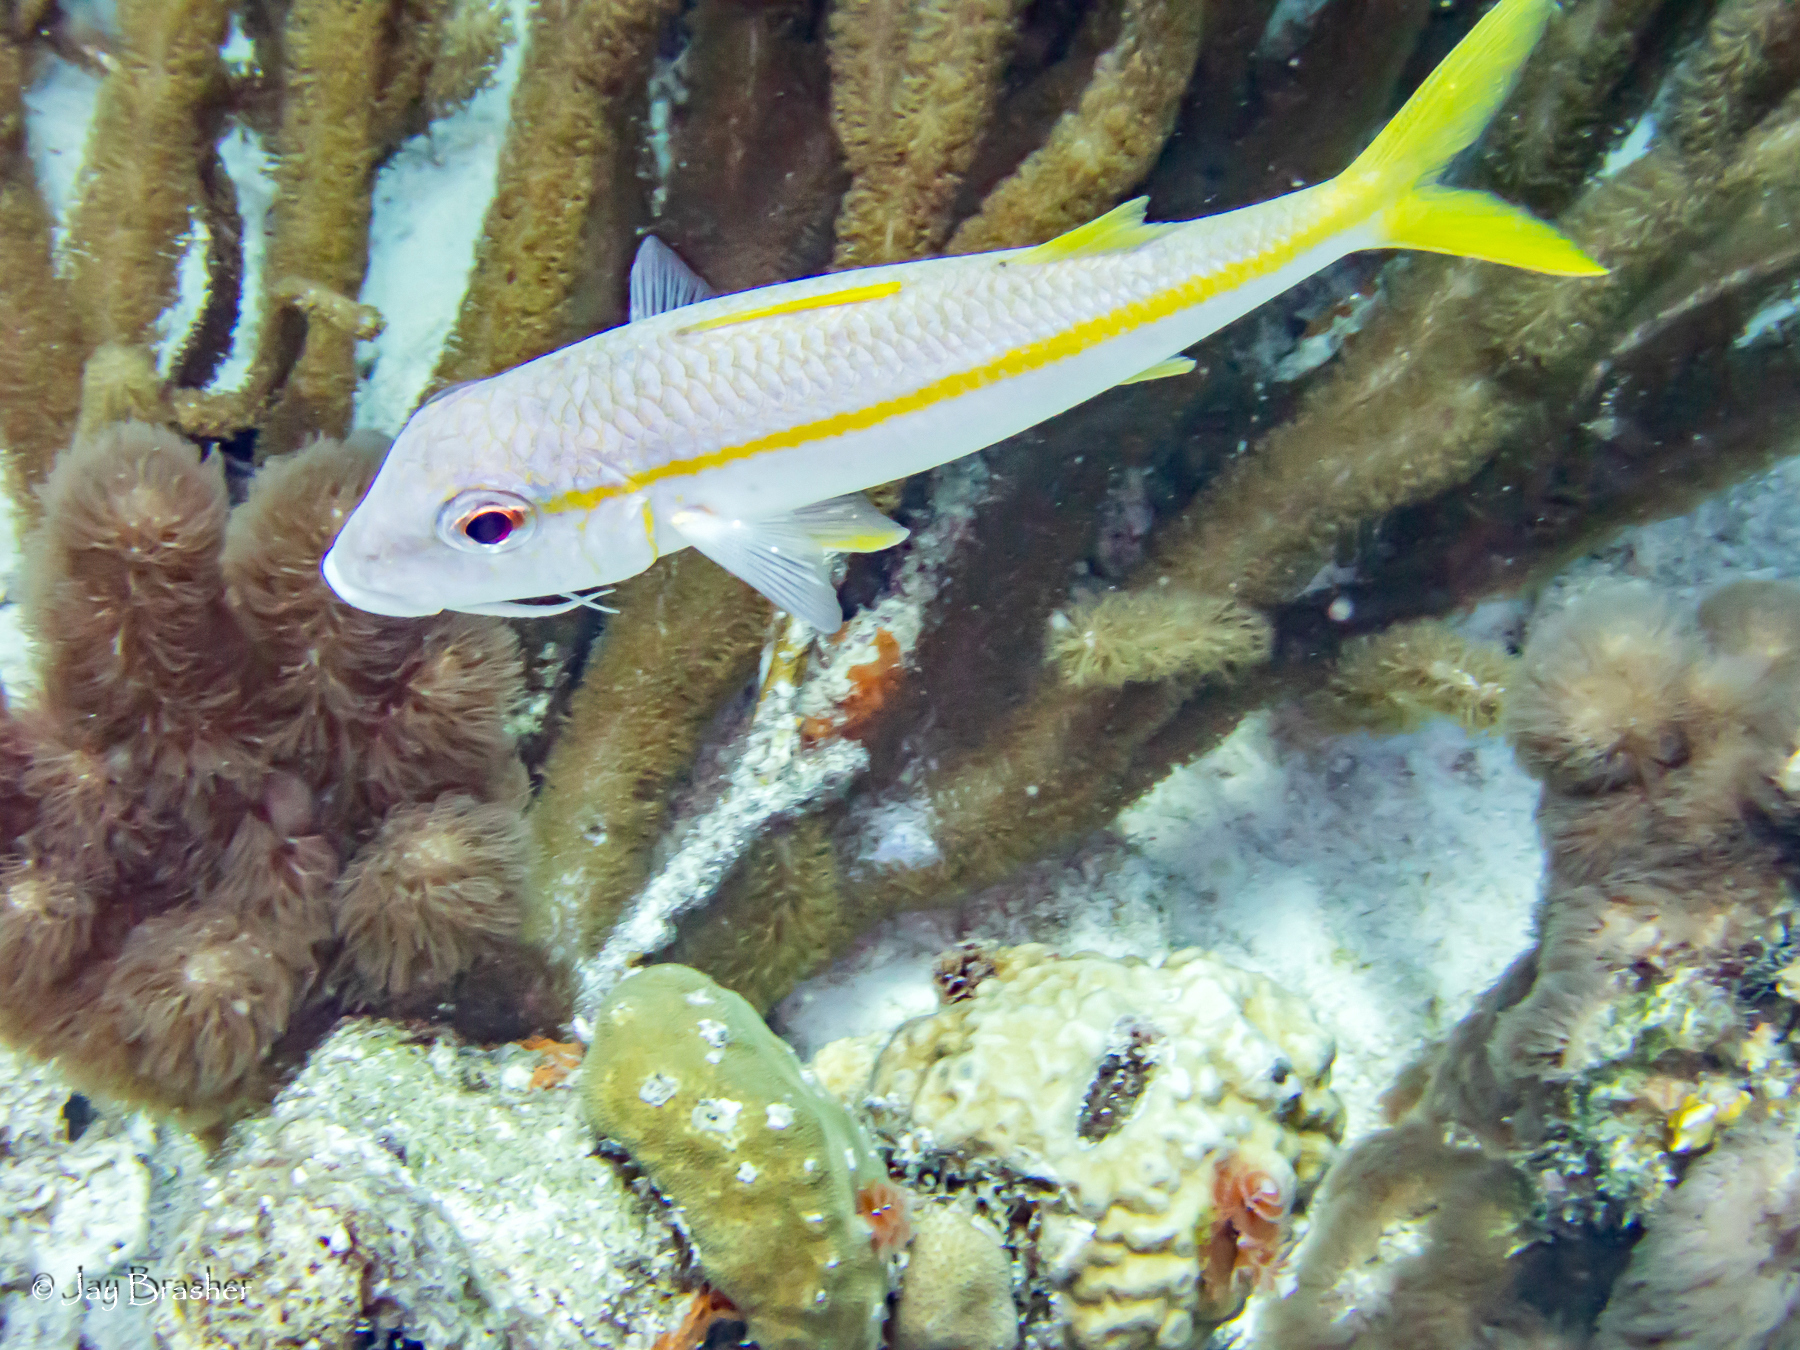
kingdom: Animalia
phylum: Chordata
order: Perciformes
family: Mullidae
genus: Mulloidichthys
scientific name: Mulloidichthys martinicus
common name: Yellow goatfish
